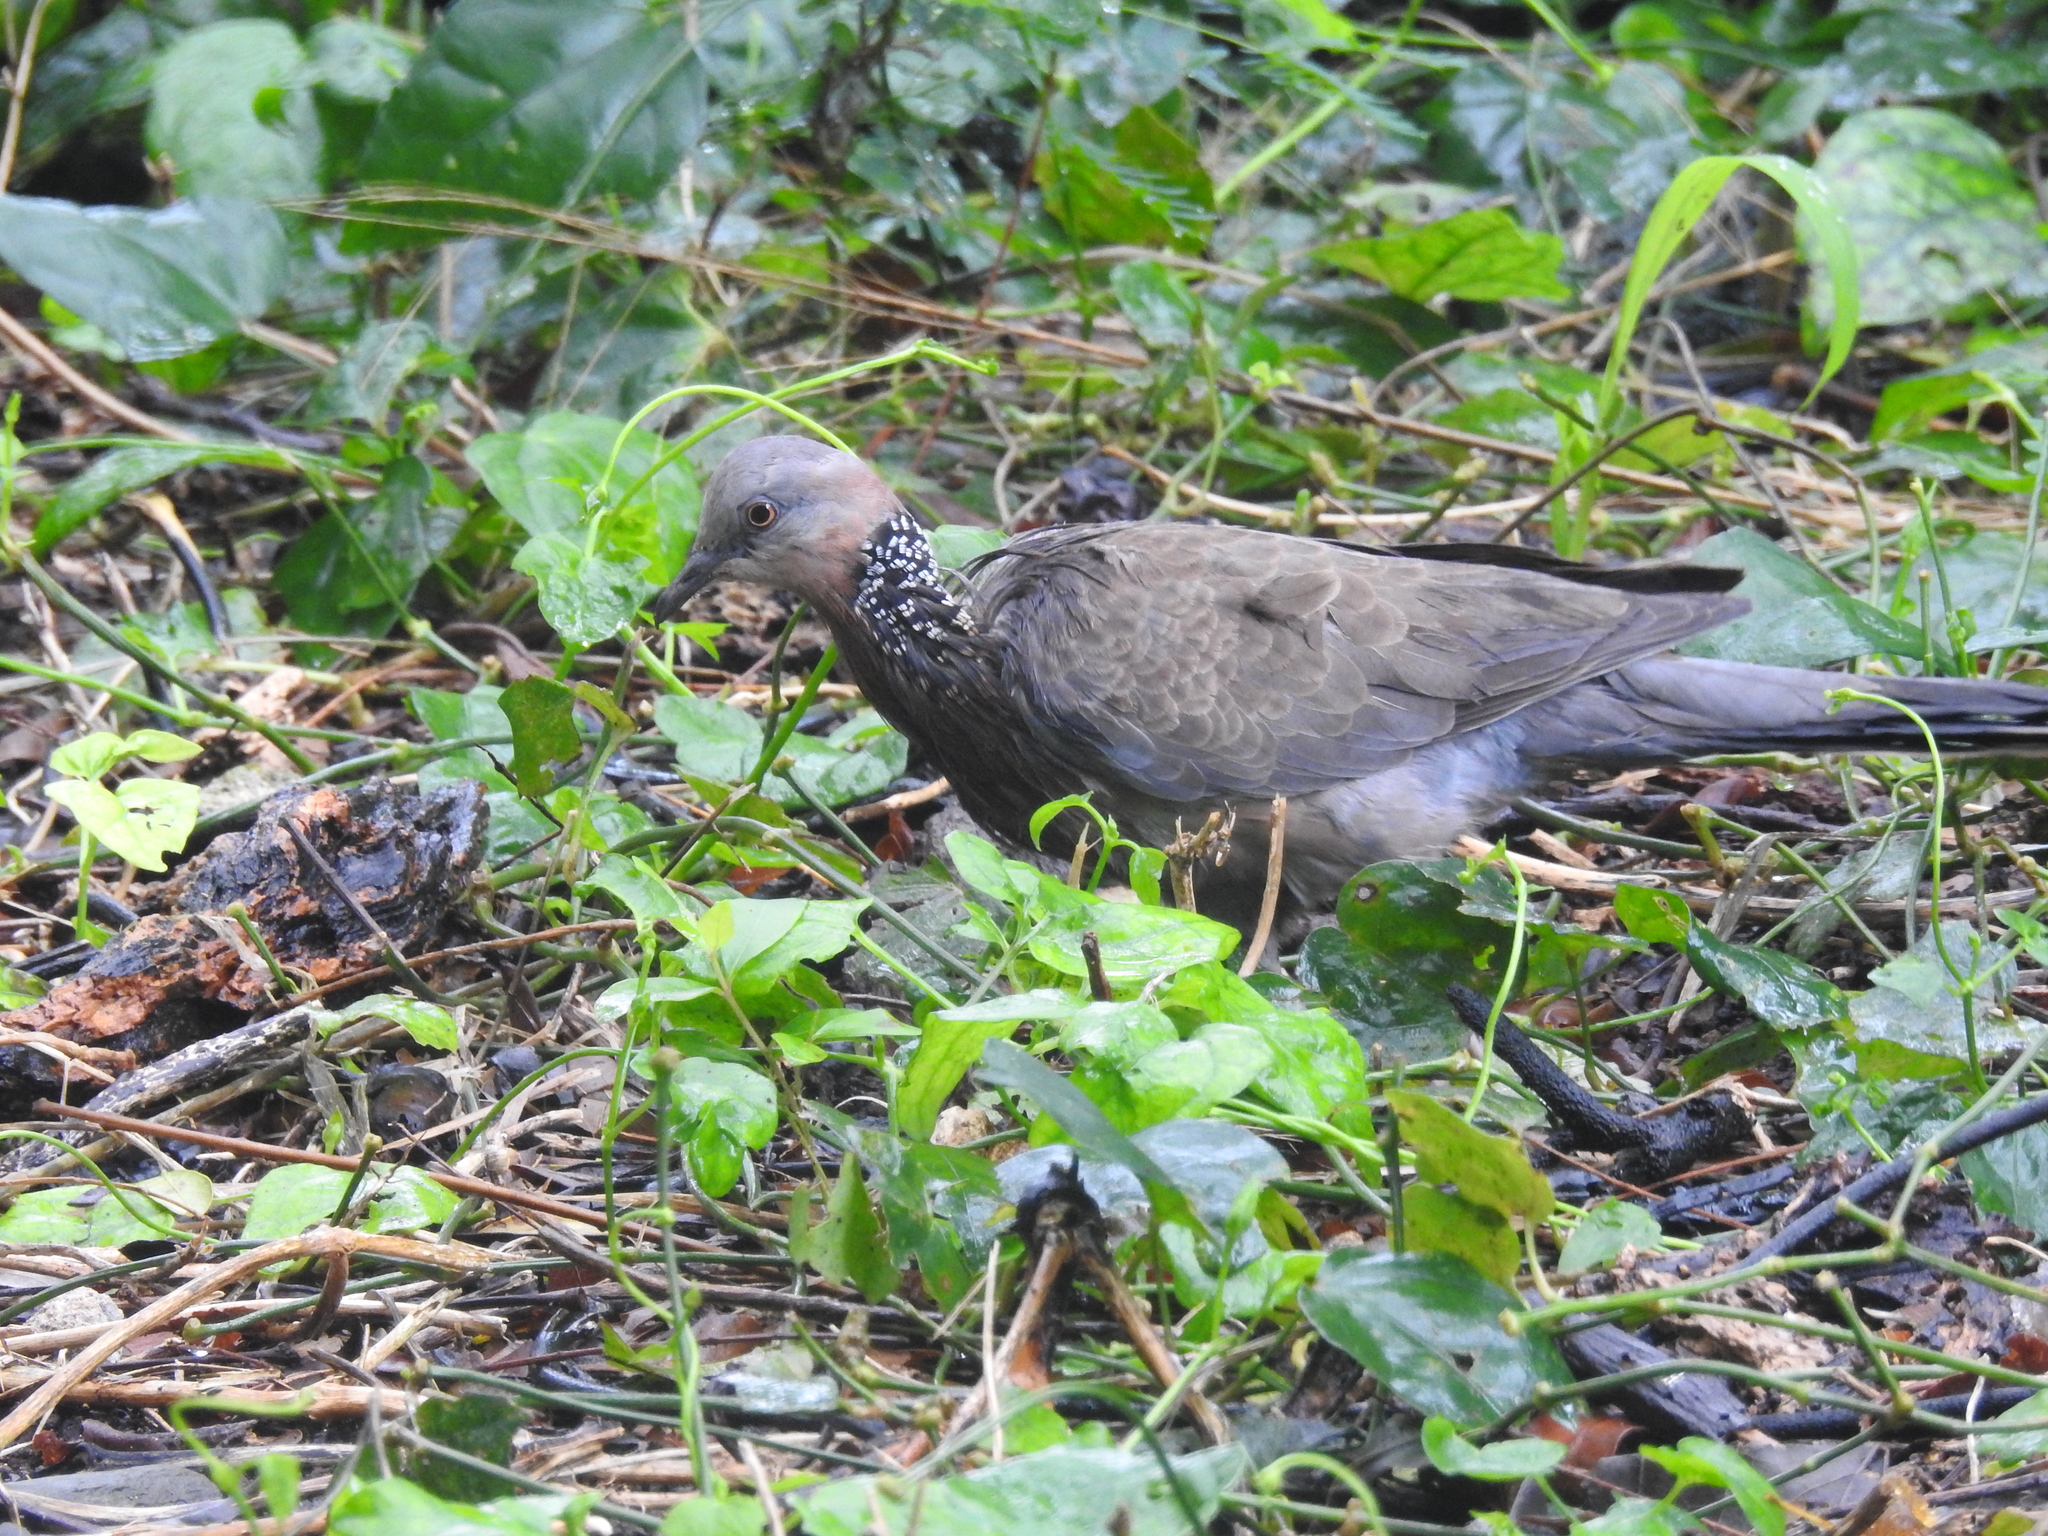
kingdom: Animalia
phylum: Chordata
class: Aves
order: Columbiformes
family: Columbidae
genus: Spilopelia
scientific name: Spilopelia chinensis
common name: Spotted dove
